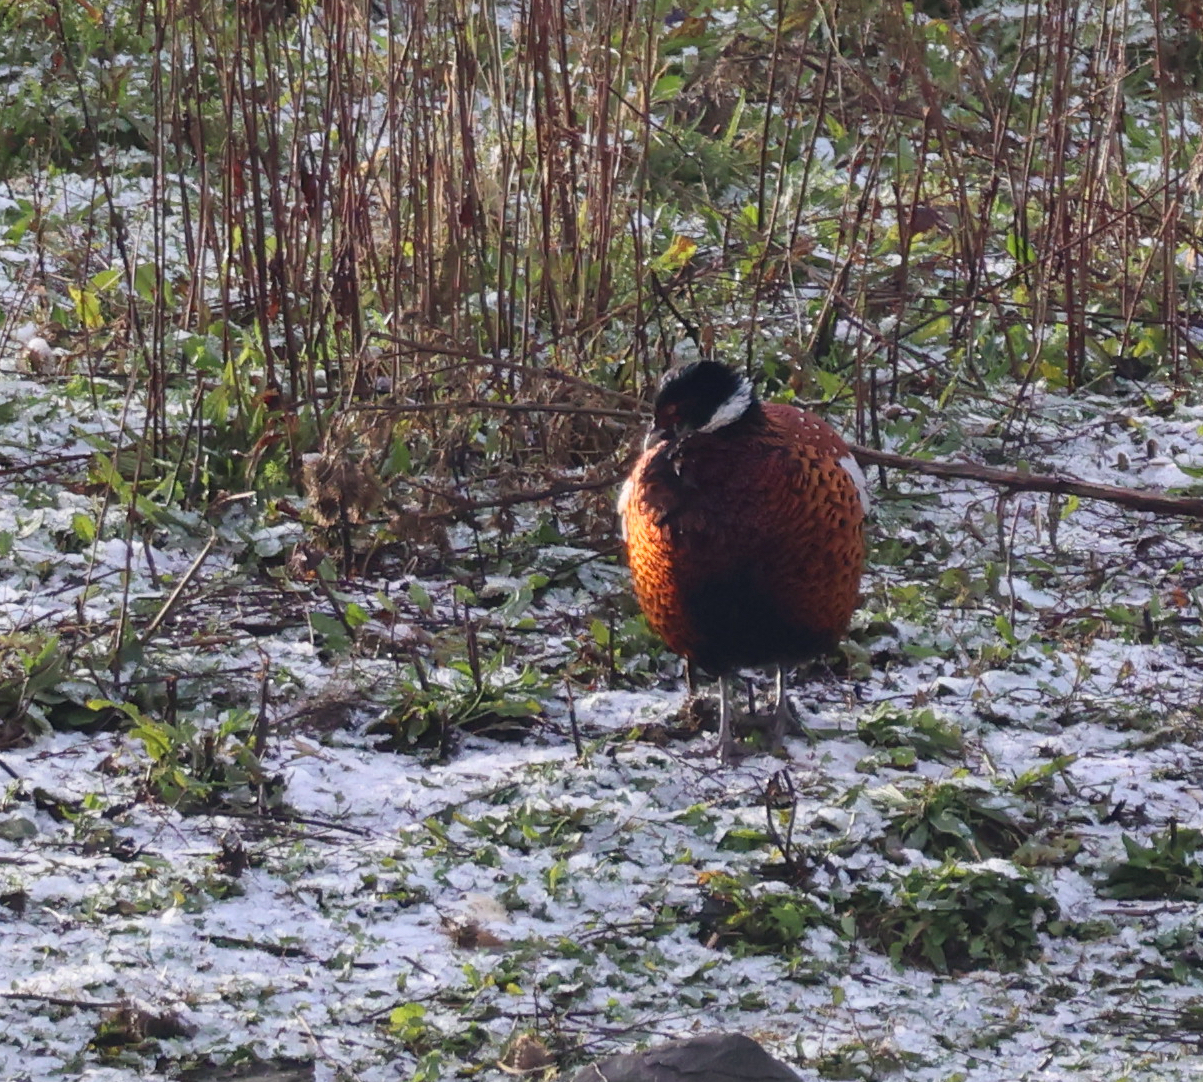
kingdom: Animalia
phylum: Chordata
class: Aves
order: Galliformes
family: Phasianidae
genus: Phasianus
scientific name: Phasianus colchicus
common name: Common pheasant
